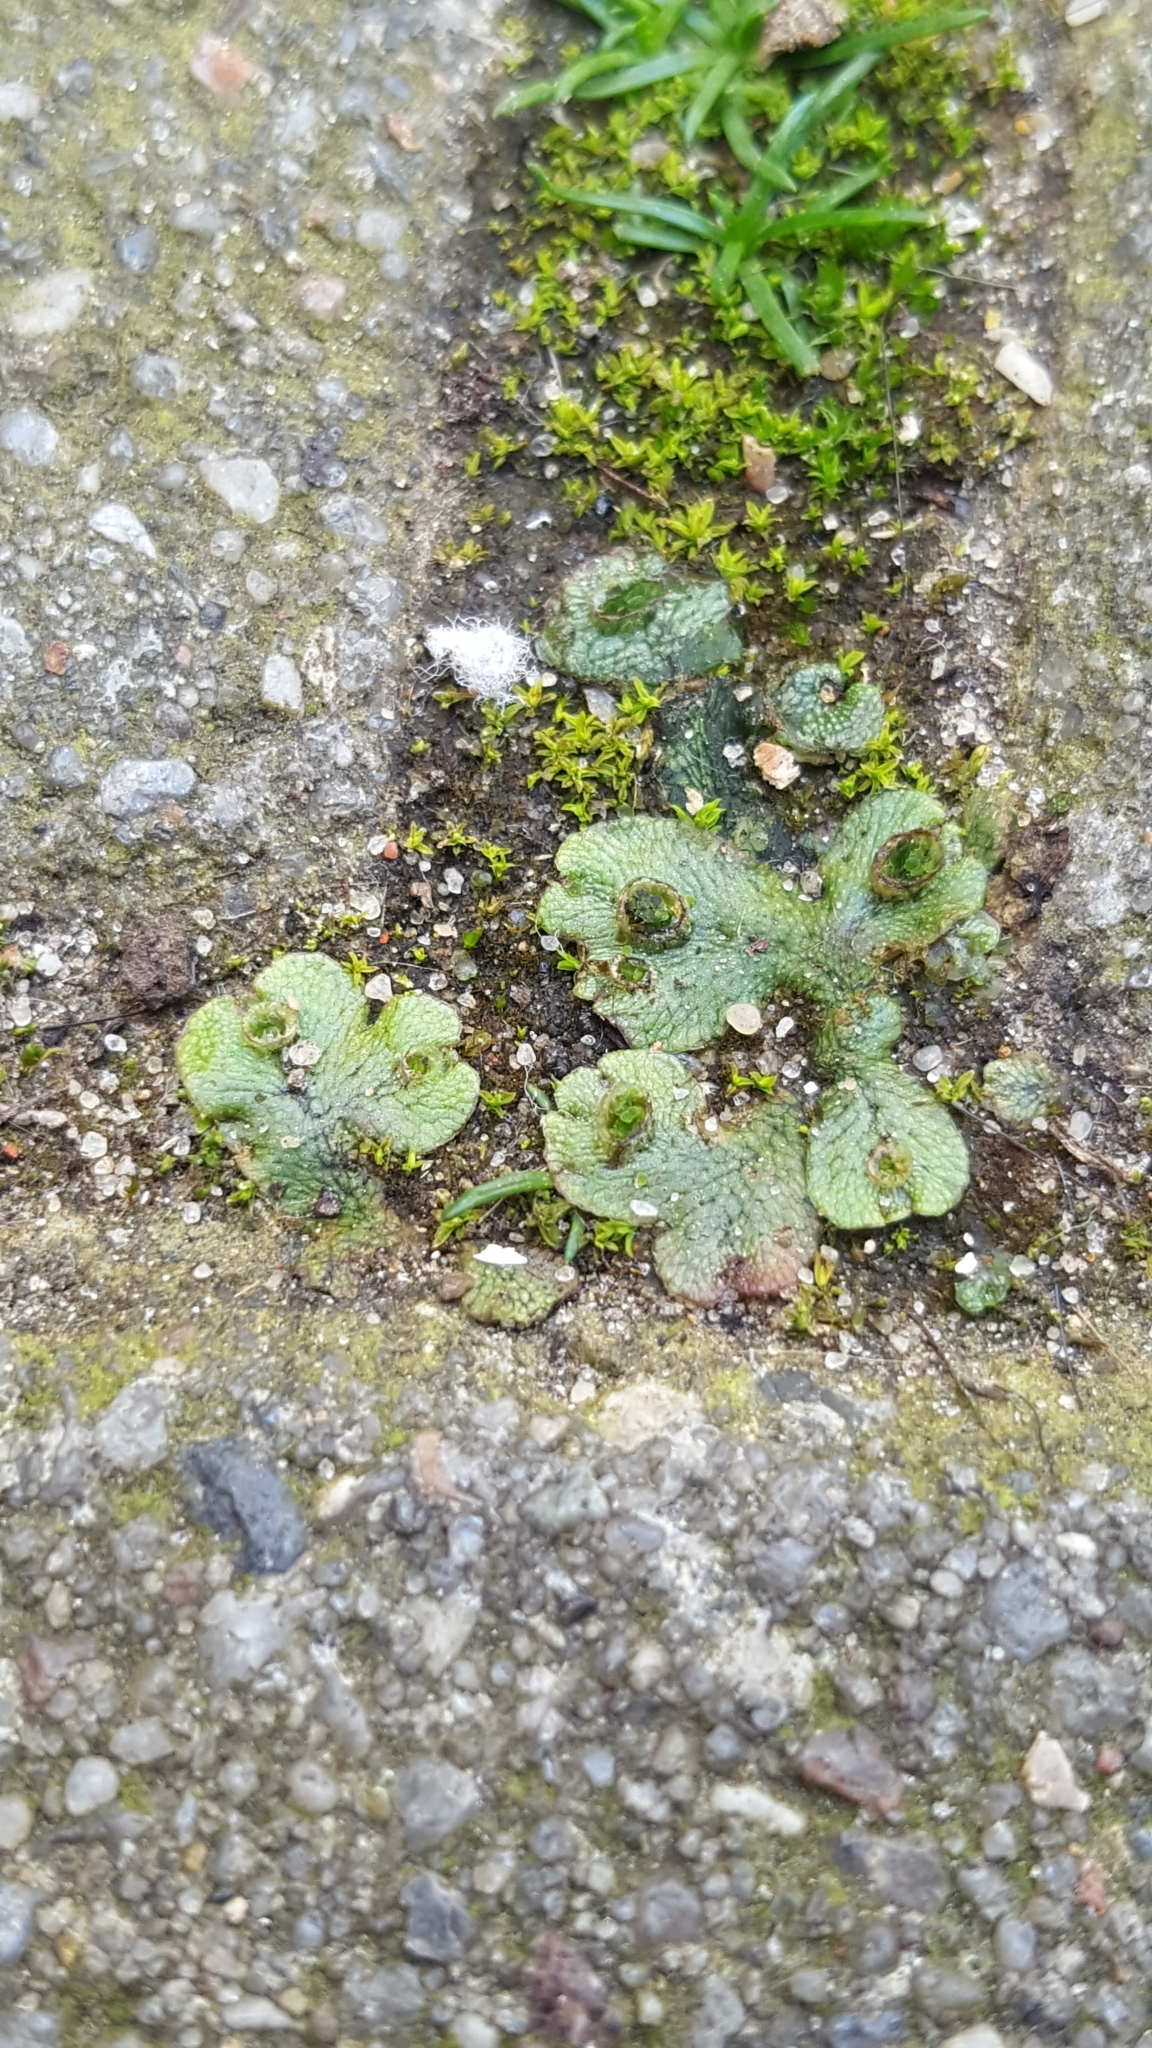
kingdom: Plantae
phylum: Marchantiophyta
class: Marchantiopsida
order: Marchantiales
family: Marchantiaceae
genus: Marchantia
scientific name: Marchantia polymorpha
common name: Common liverwort
